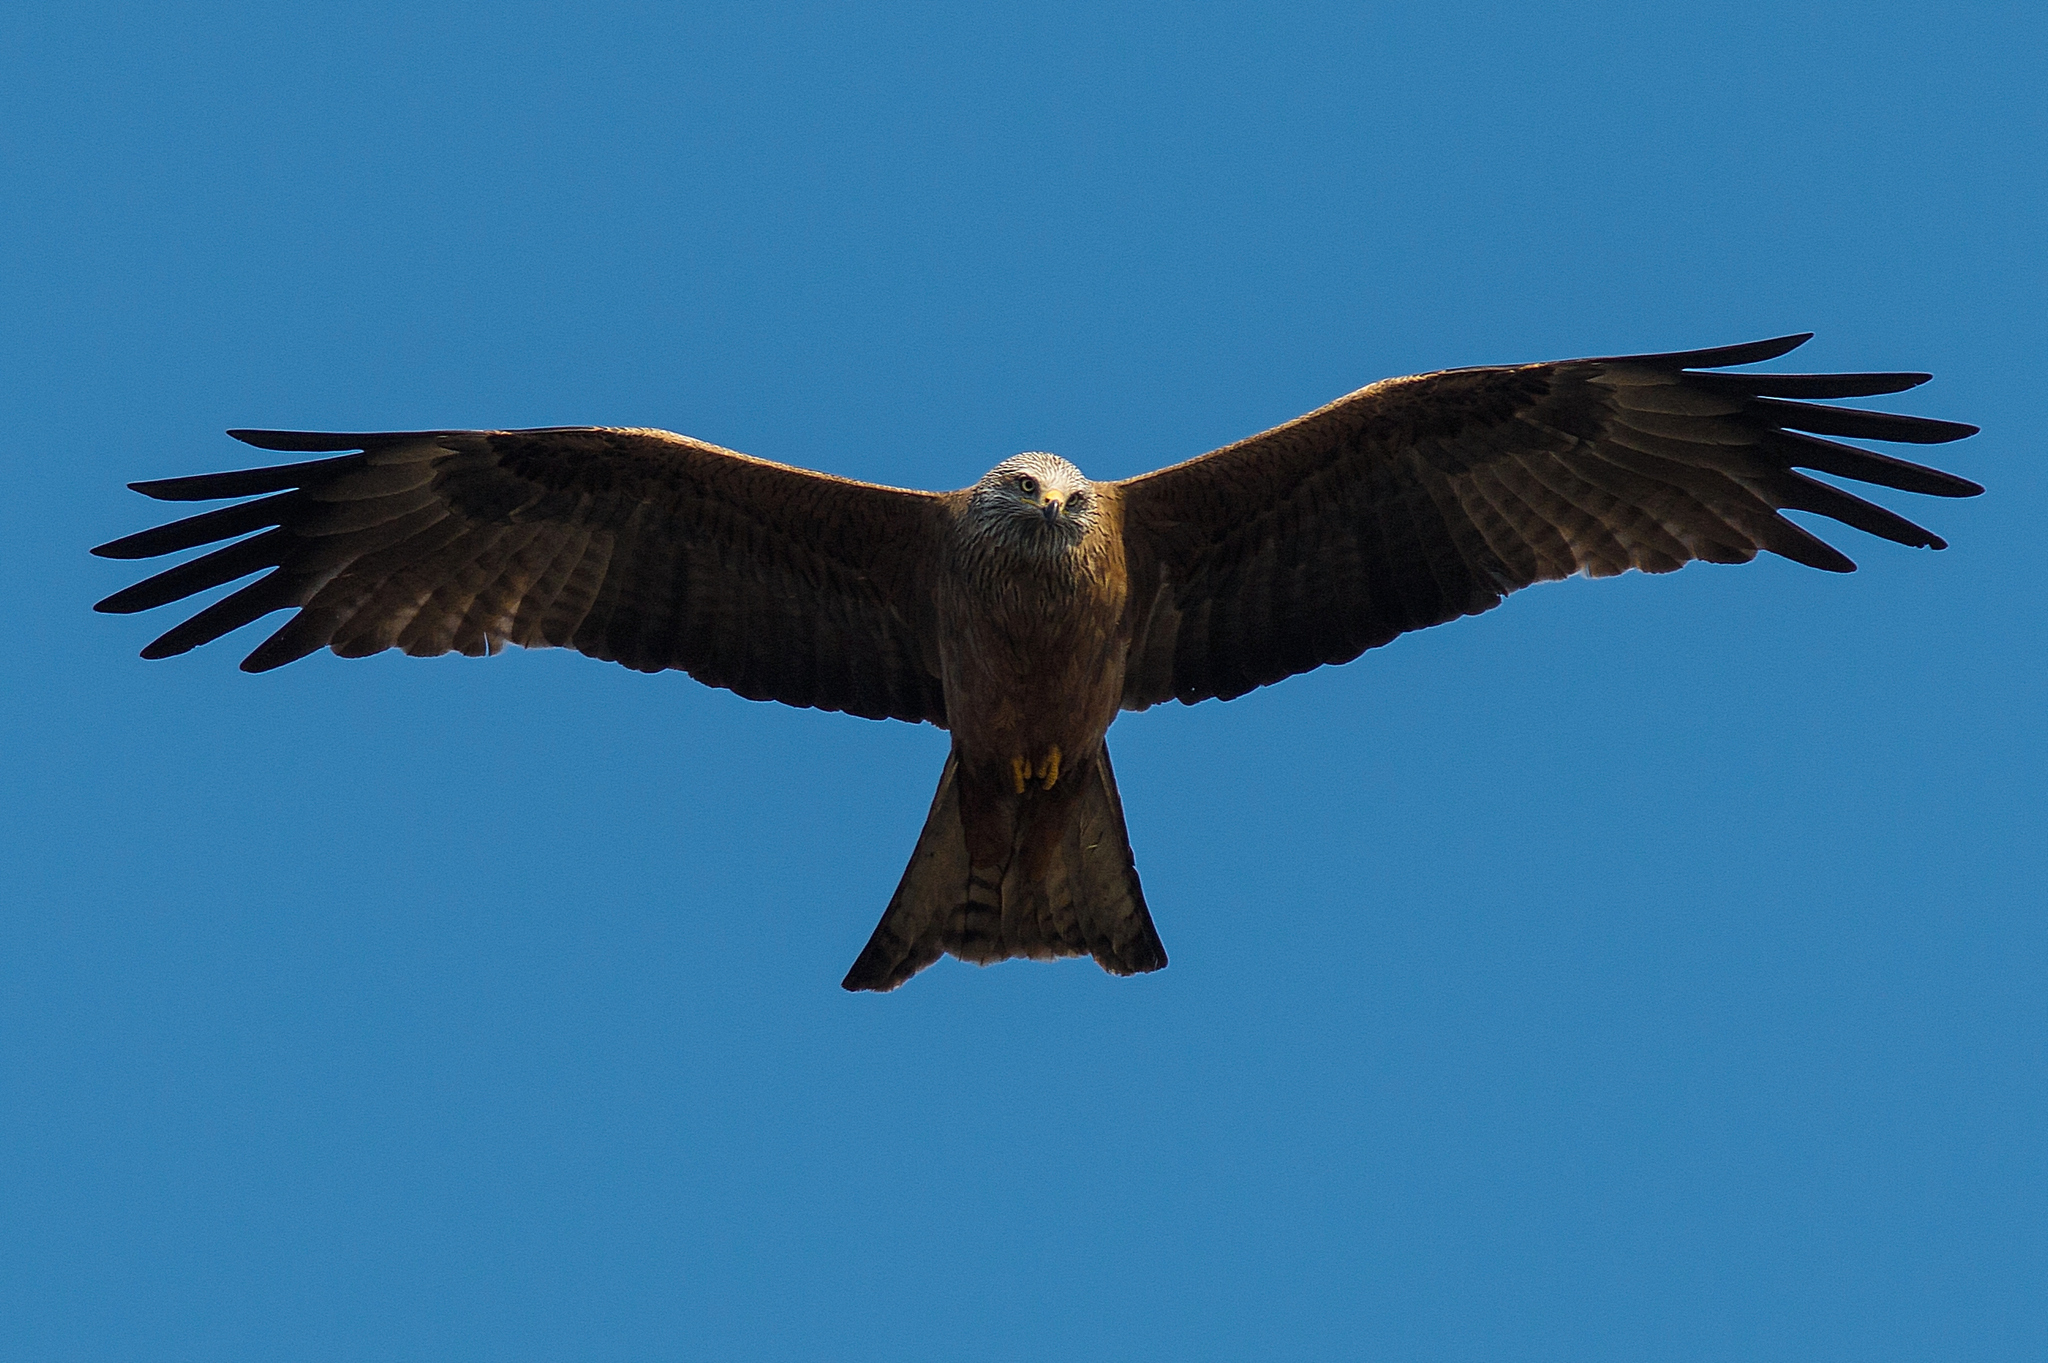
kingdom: Animalia
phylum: Chordata
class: Aves
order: Accipitriformes
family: Accipitridae
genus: Milvus
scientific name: Milvus migrans
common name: Black kite
